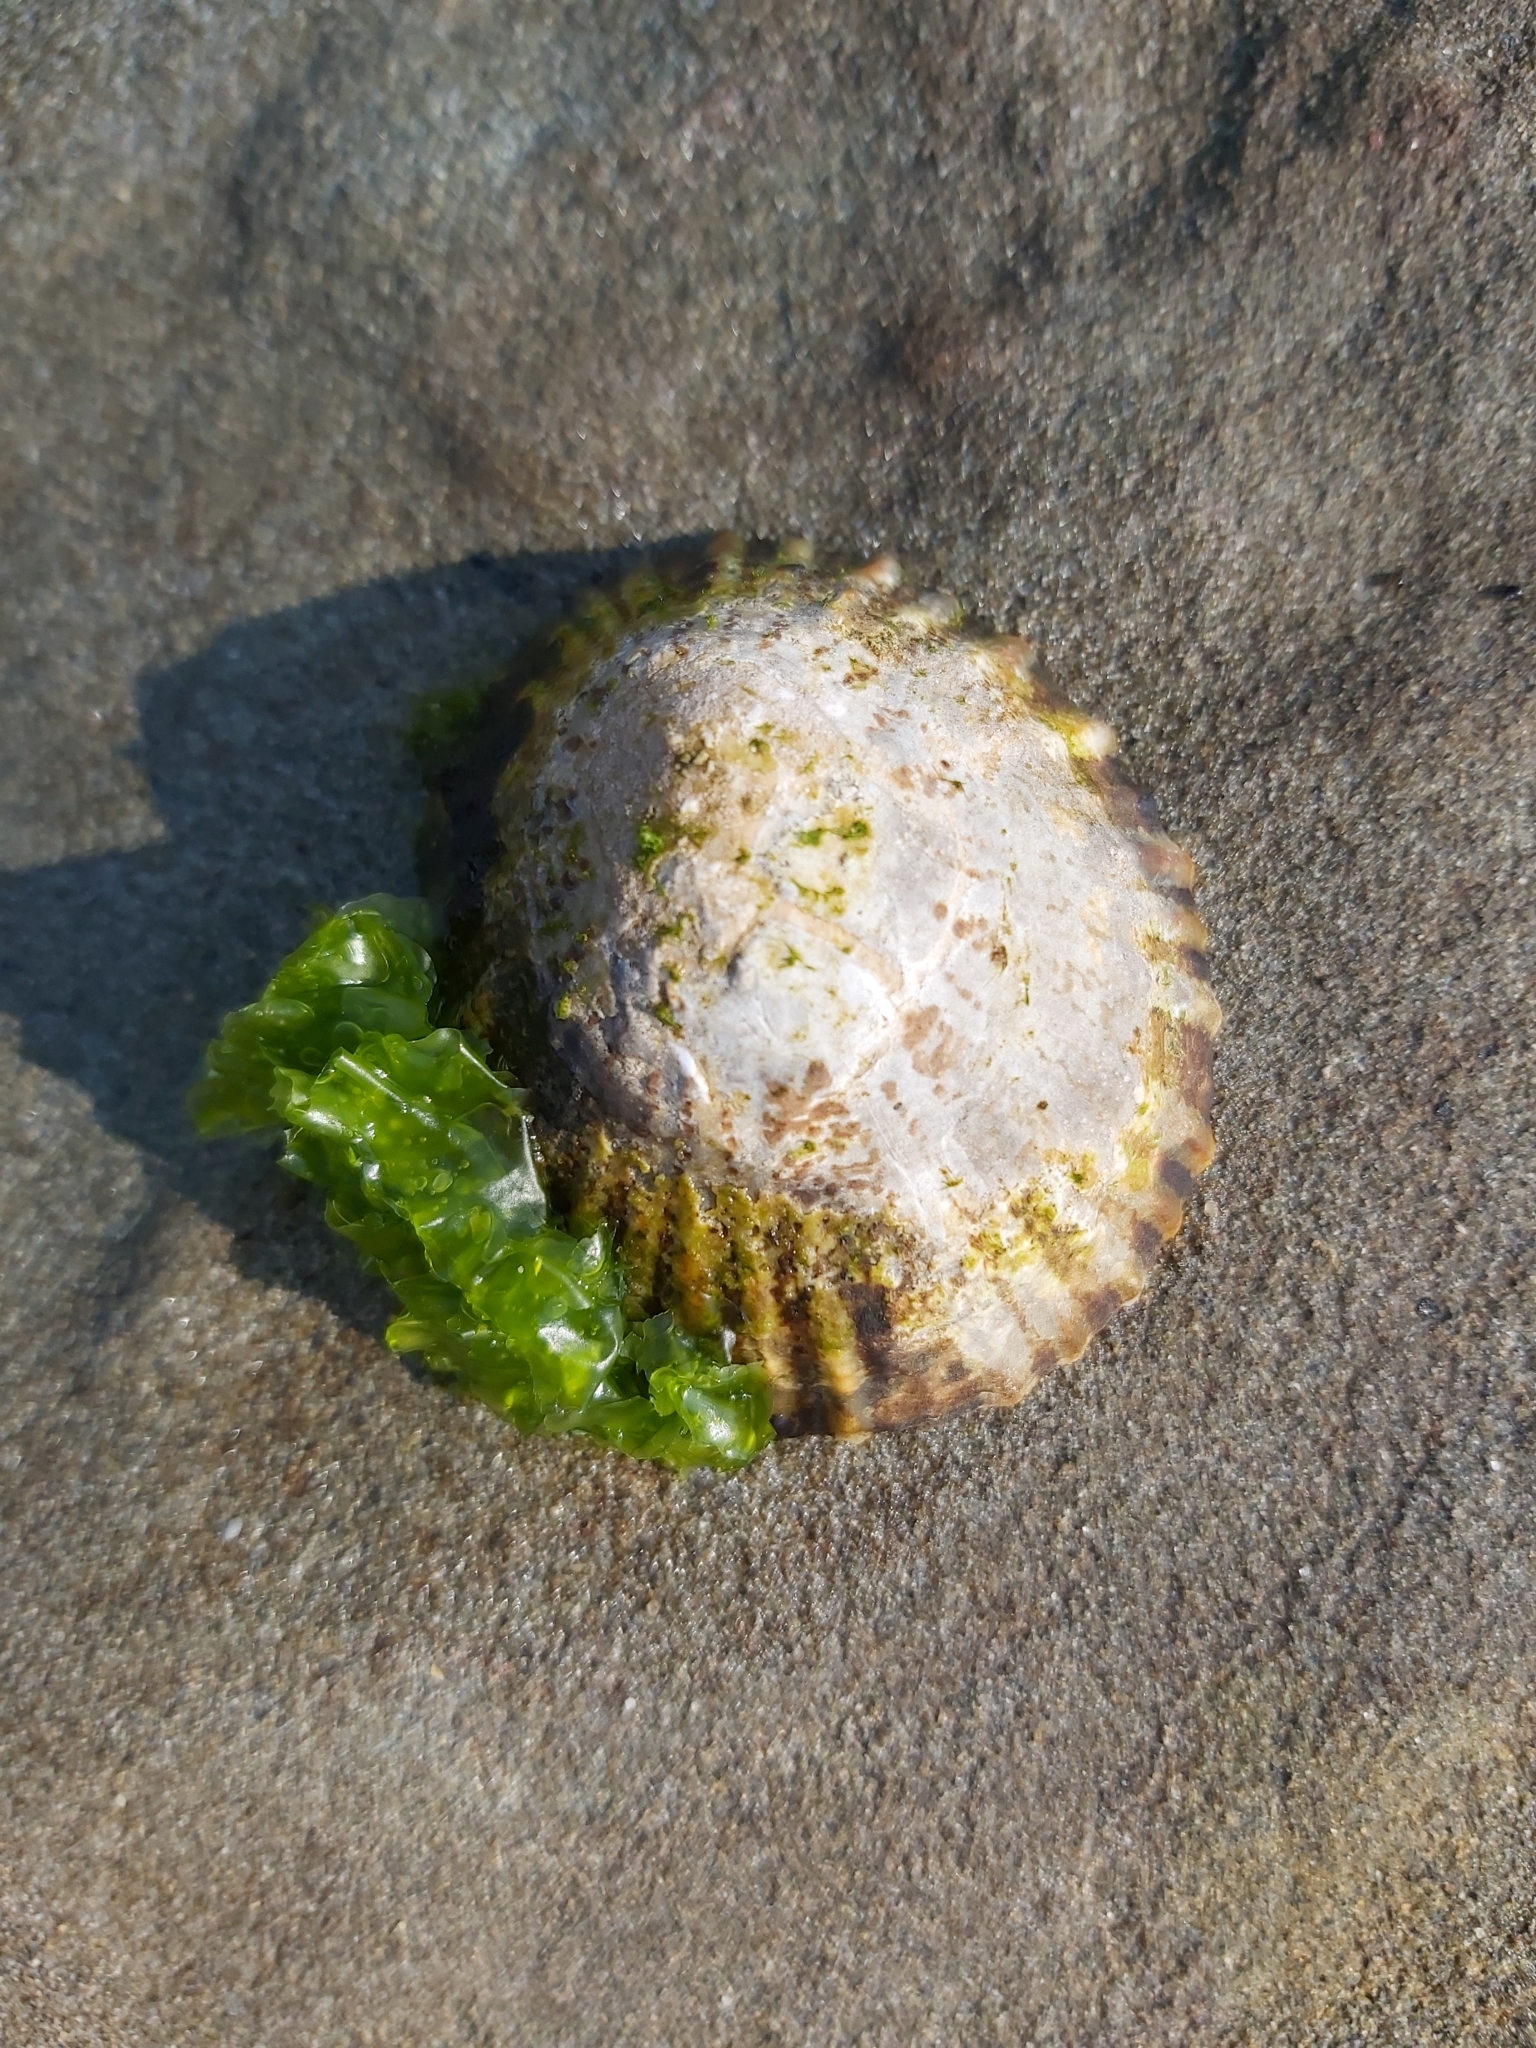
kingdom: Animalia
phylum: Mollusca
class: Gastropoda
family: Nacellidae
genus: Cellana
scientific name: Cellana tramoserica
